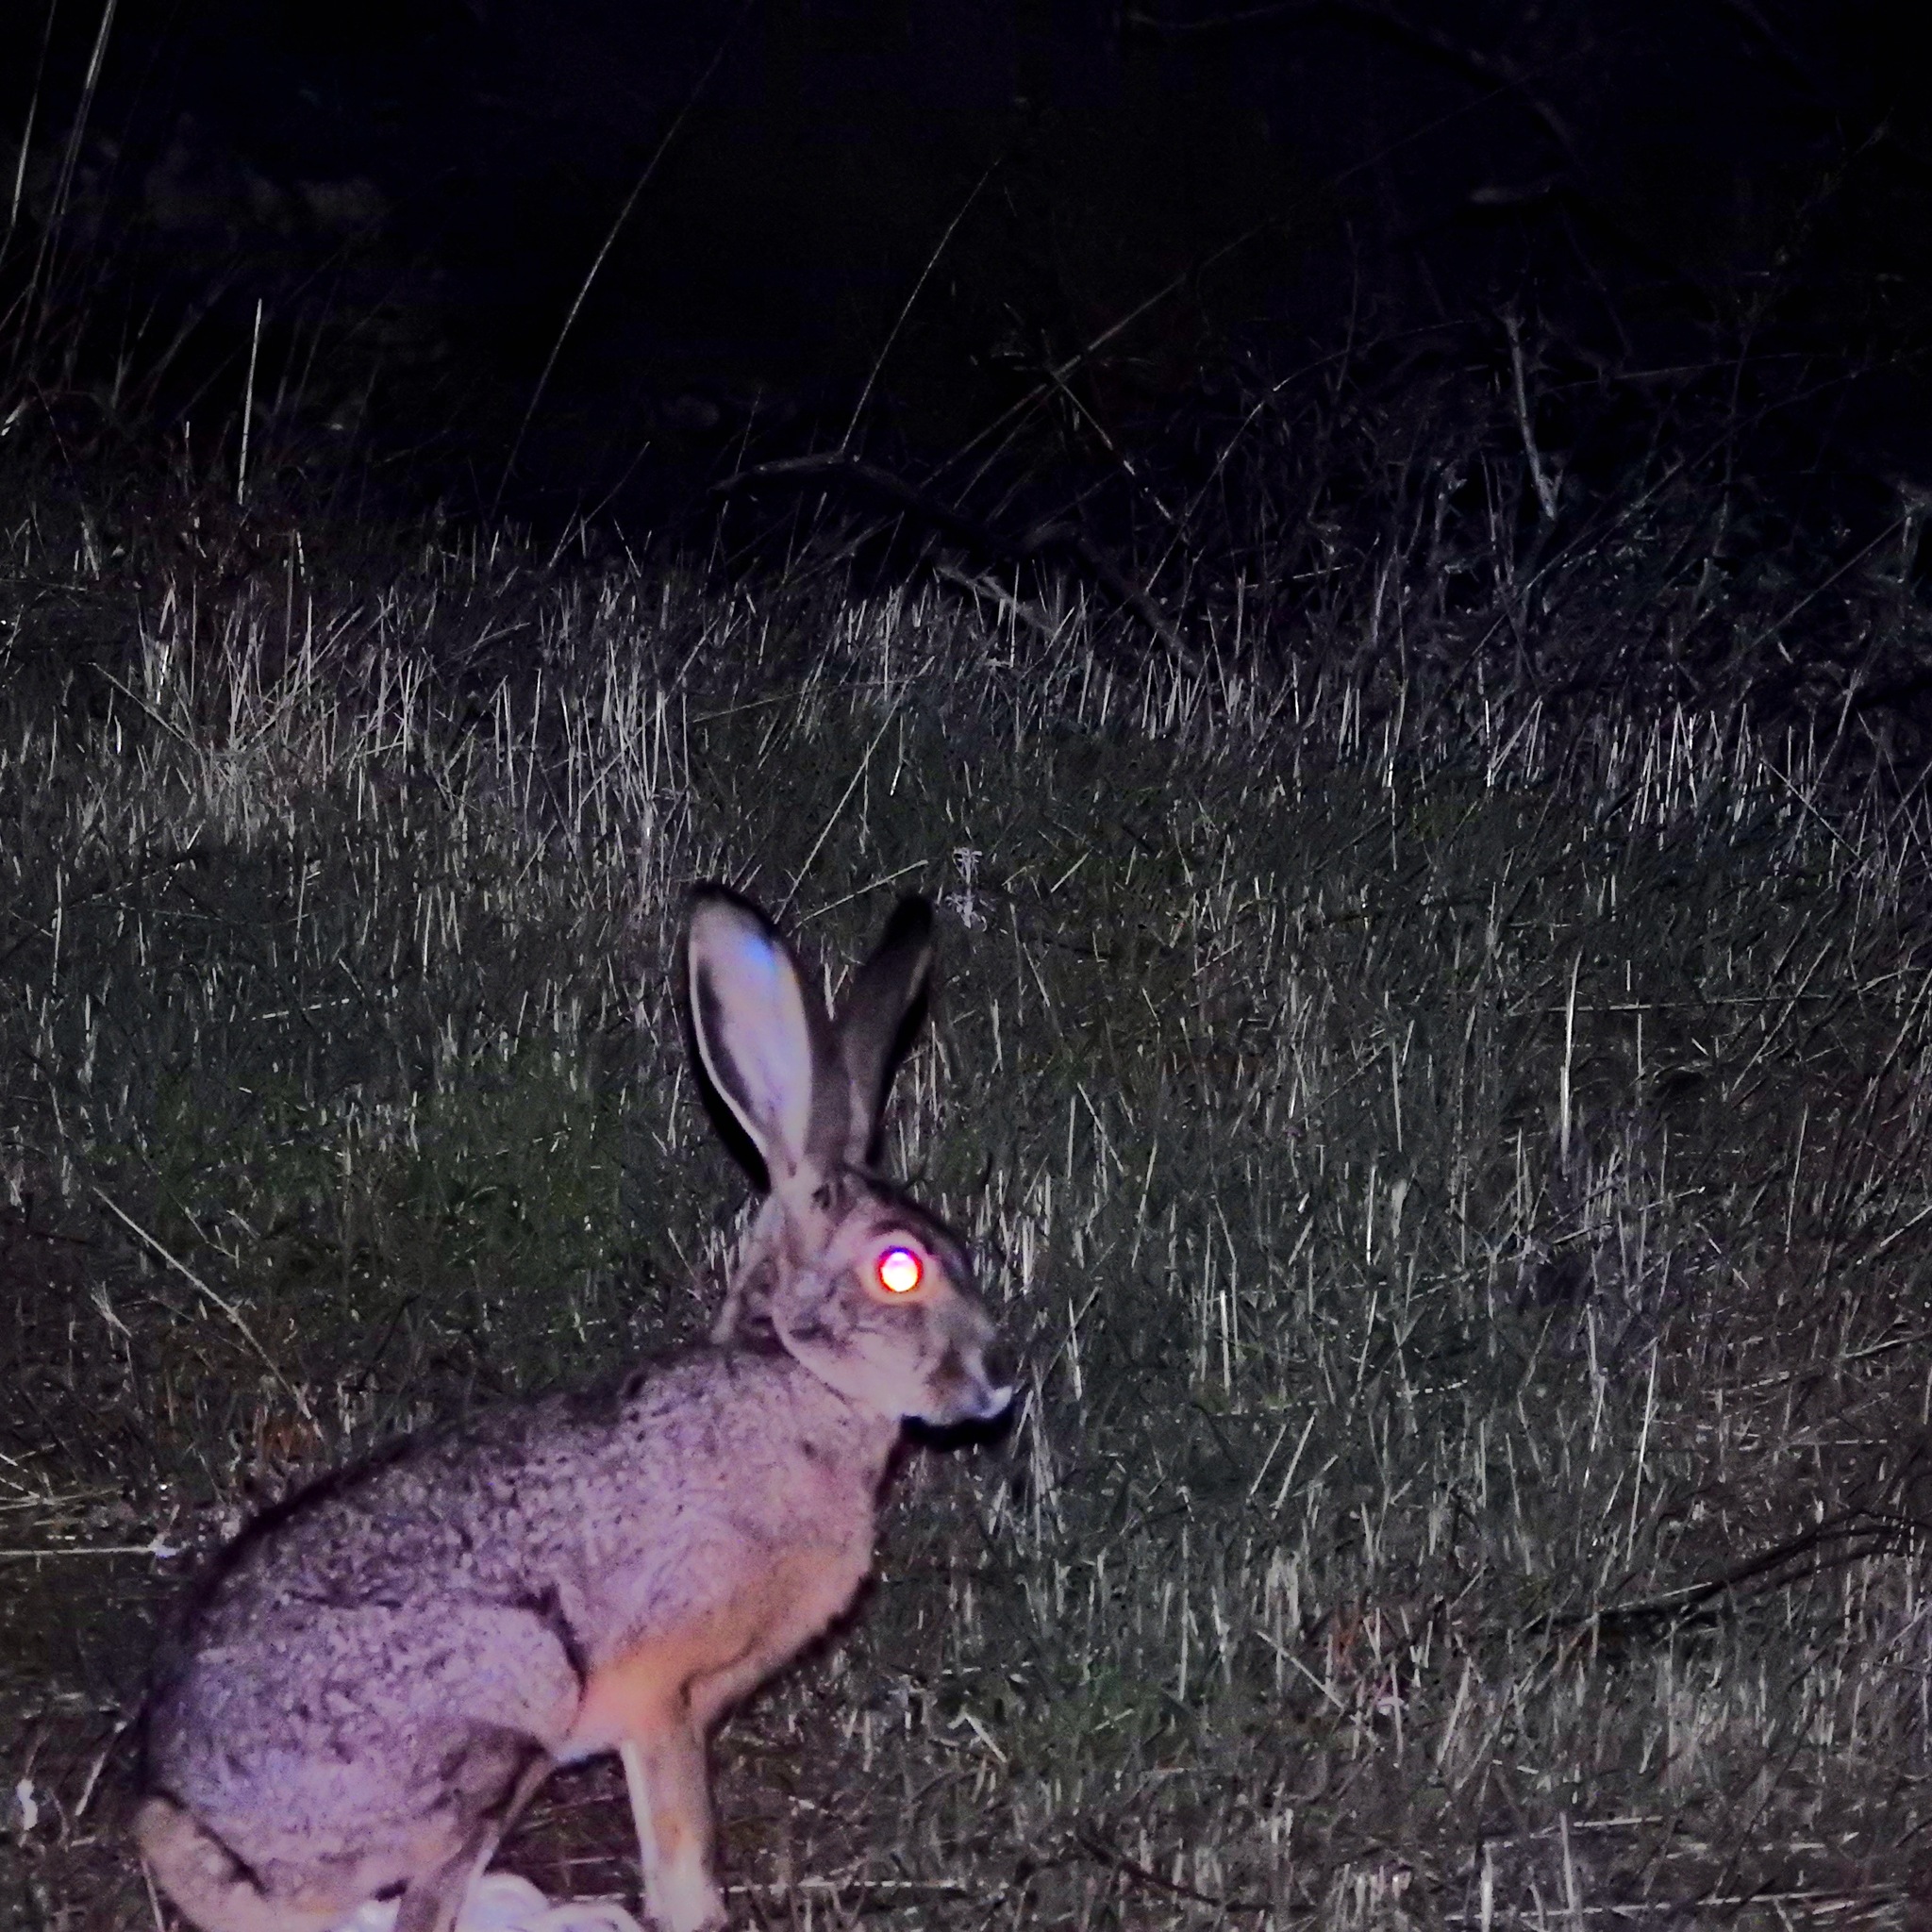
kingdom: Animalia
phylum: Chordata
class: Mammalia
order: Lagomorpha
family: Leporidae
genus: Lepus
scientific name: Lepus californicus
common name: Black-tailed jackrabbit
